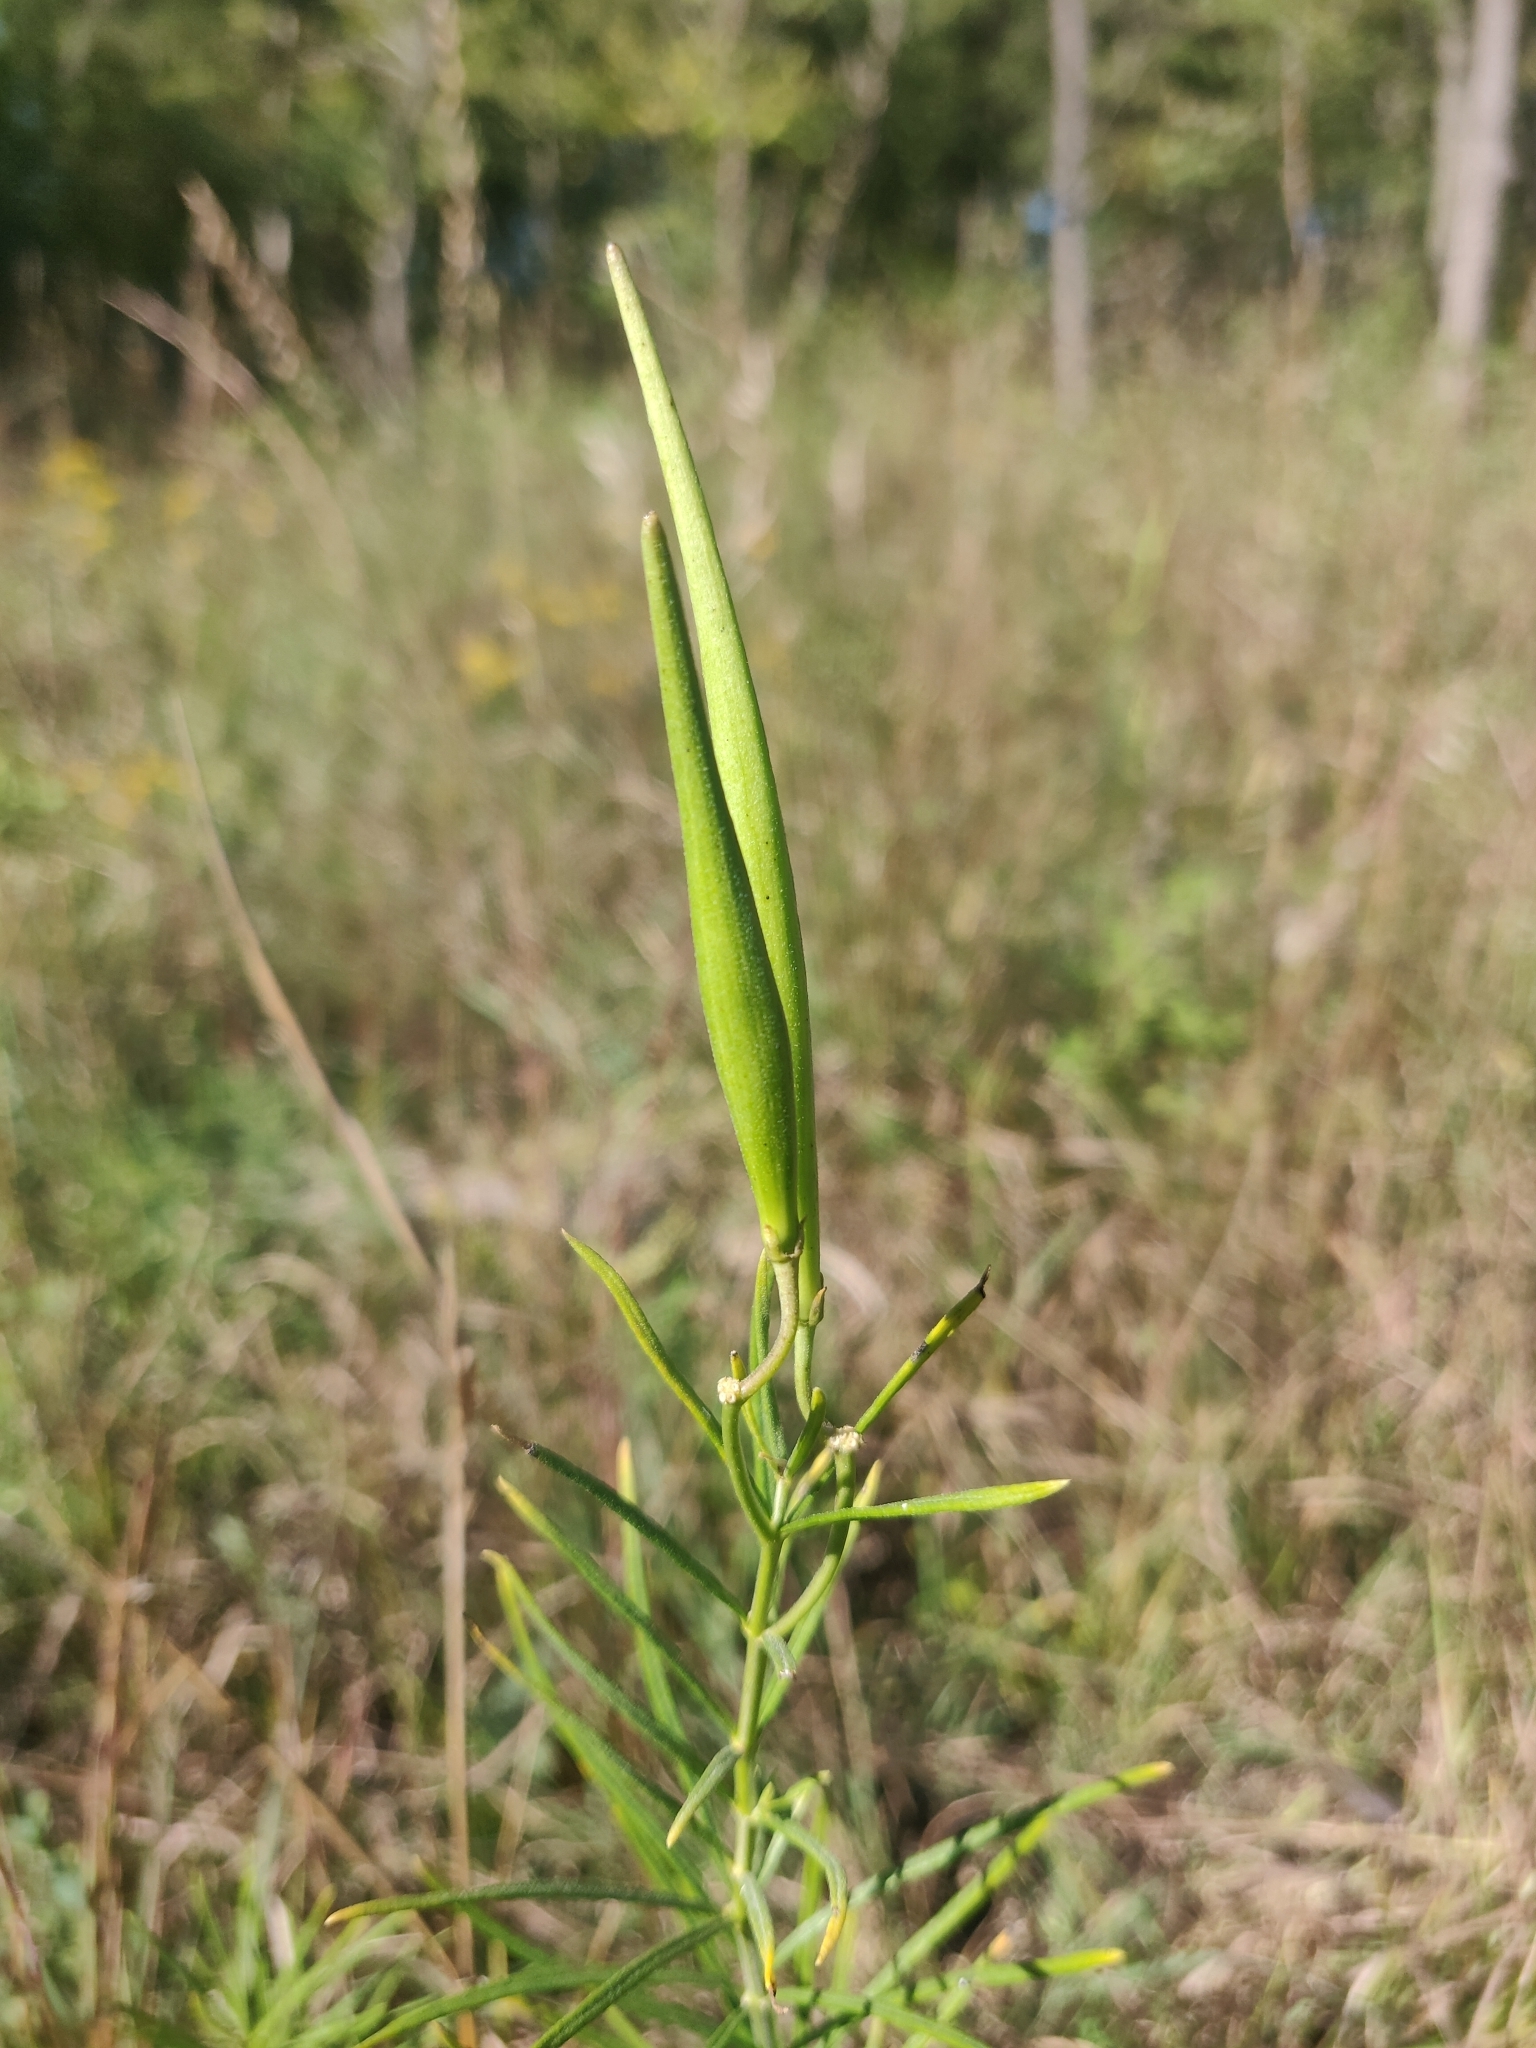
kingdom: Plantae
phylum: Tracheophyta
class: Magnoliopsida
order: Gentianales
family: Apocynaceae
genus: Asclepias
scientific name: Asclepias verticillata
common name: Eastern whorled milkweed
